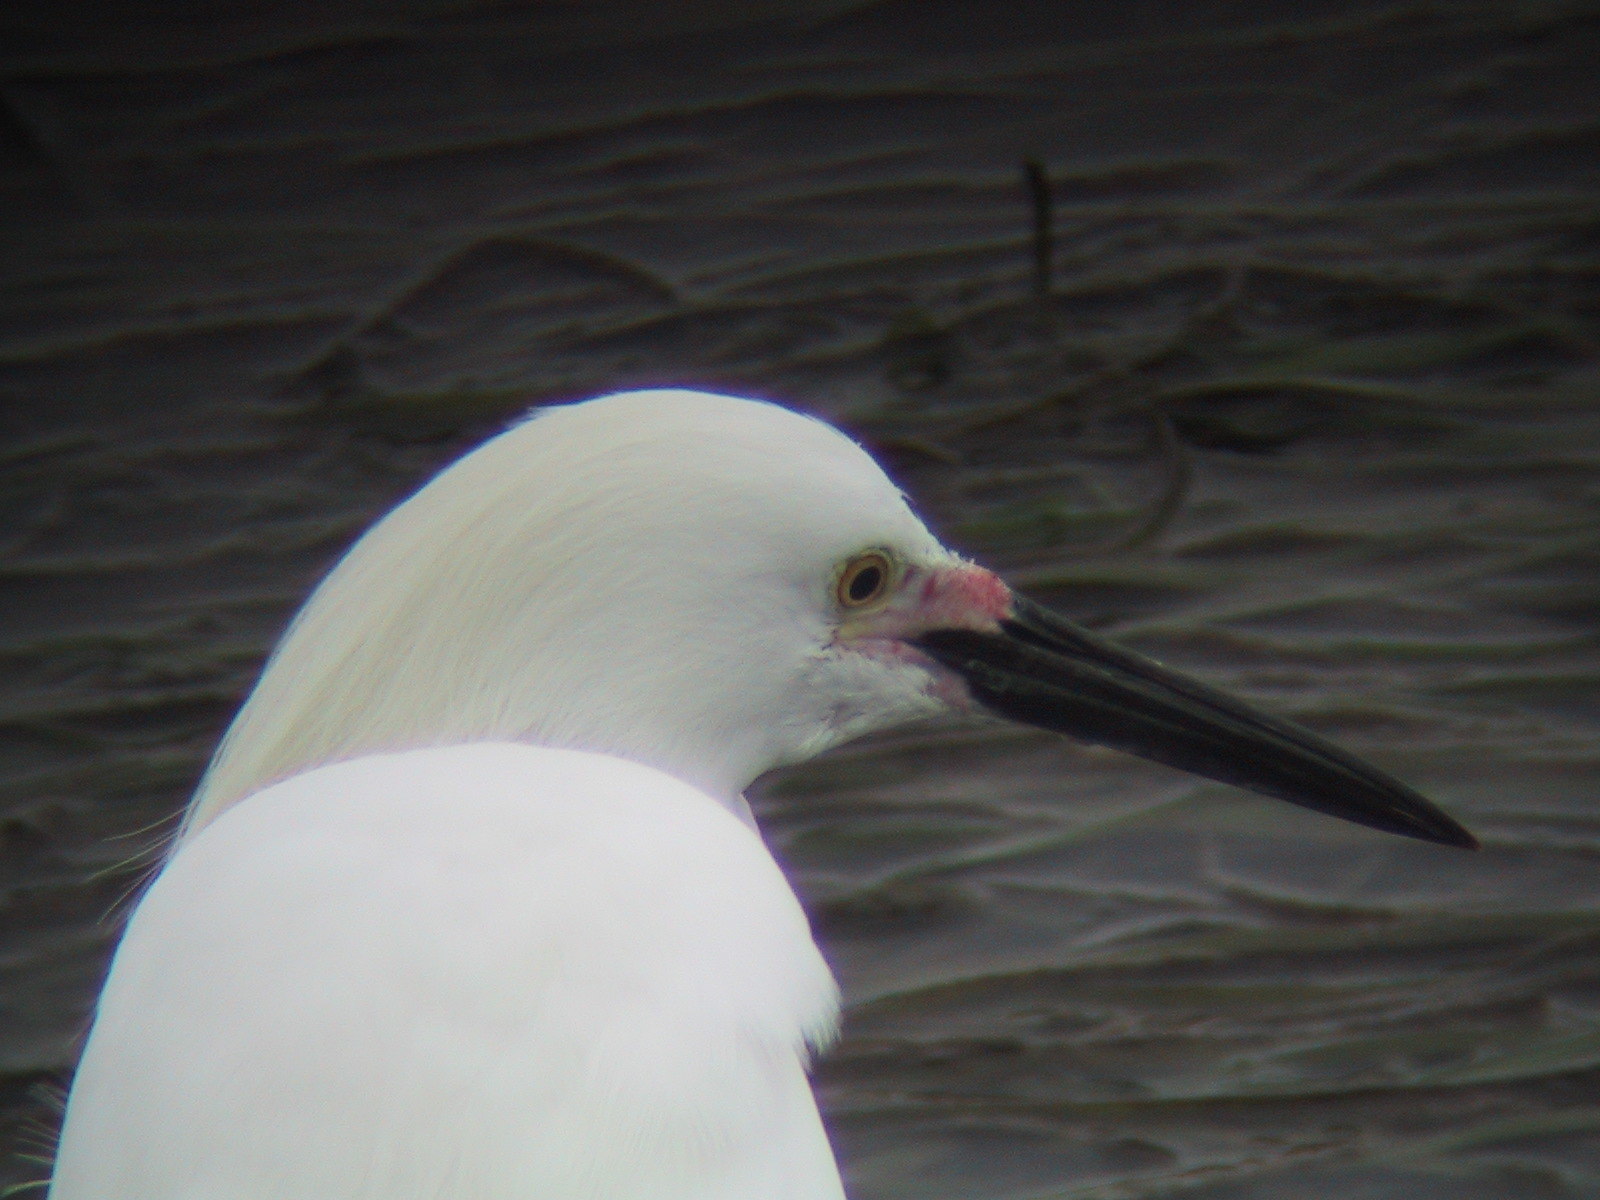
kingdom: Animalia
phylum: Chordata
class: Aves
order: Pelecaniformes
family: Ardeidae
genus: Egretta
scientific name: Egretta thula
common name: Snowy egret
